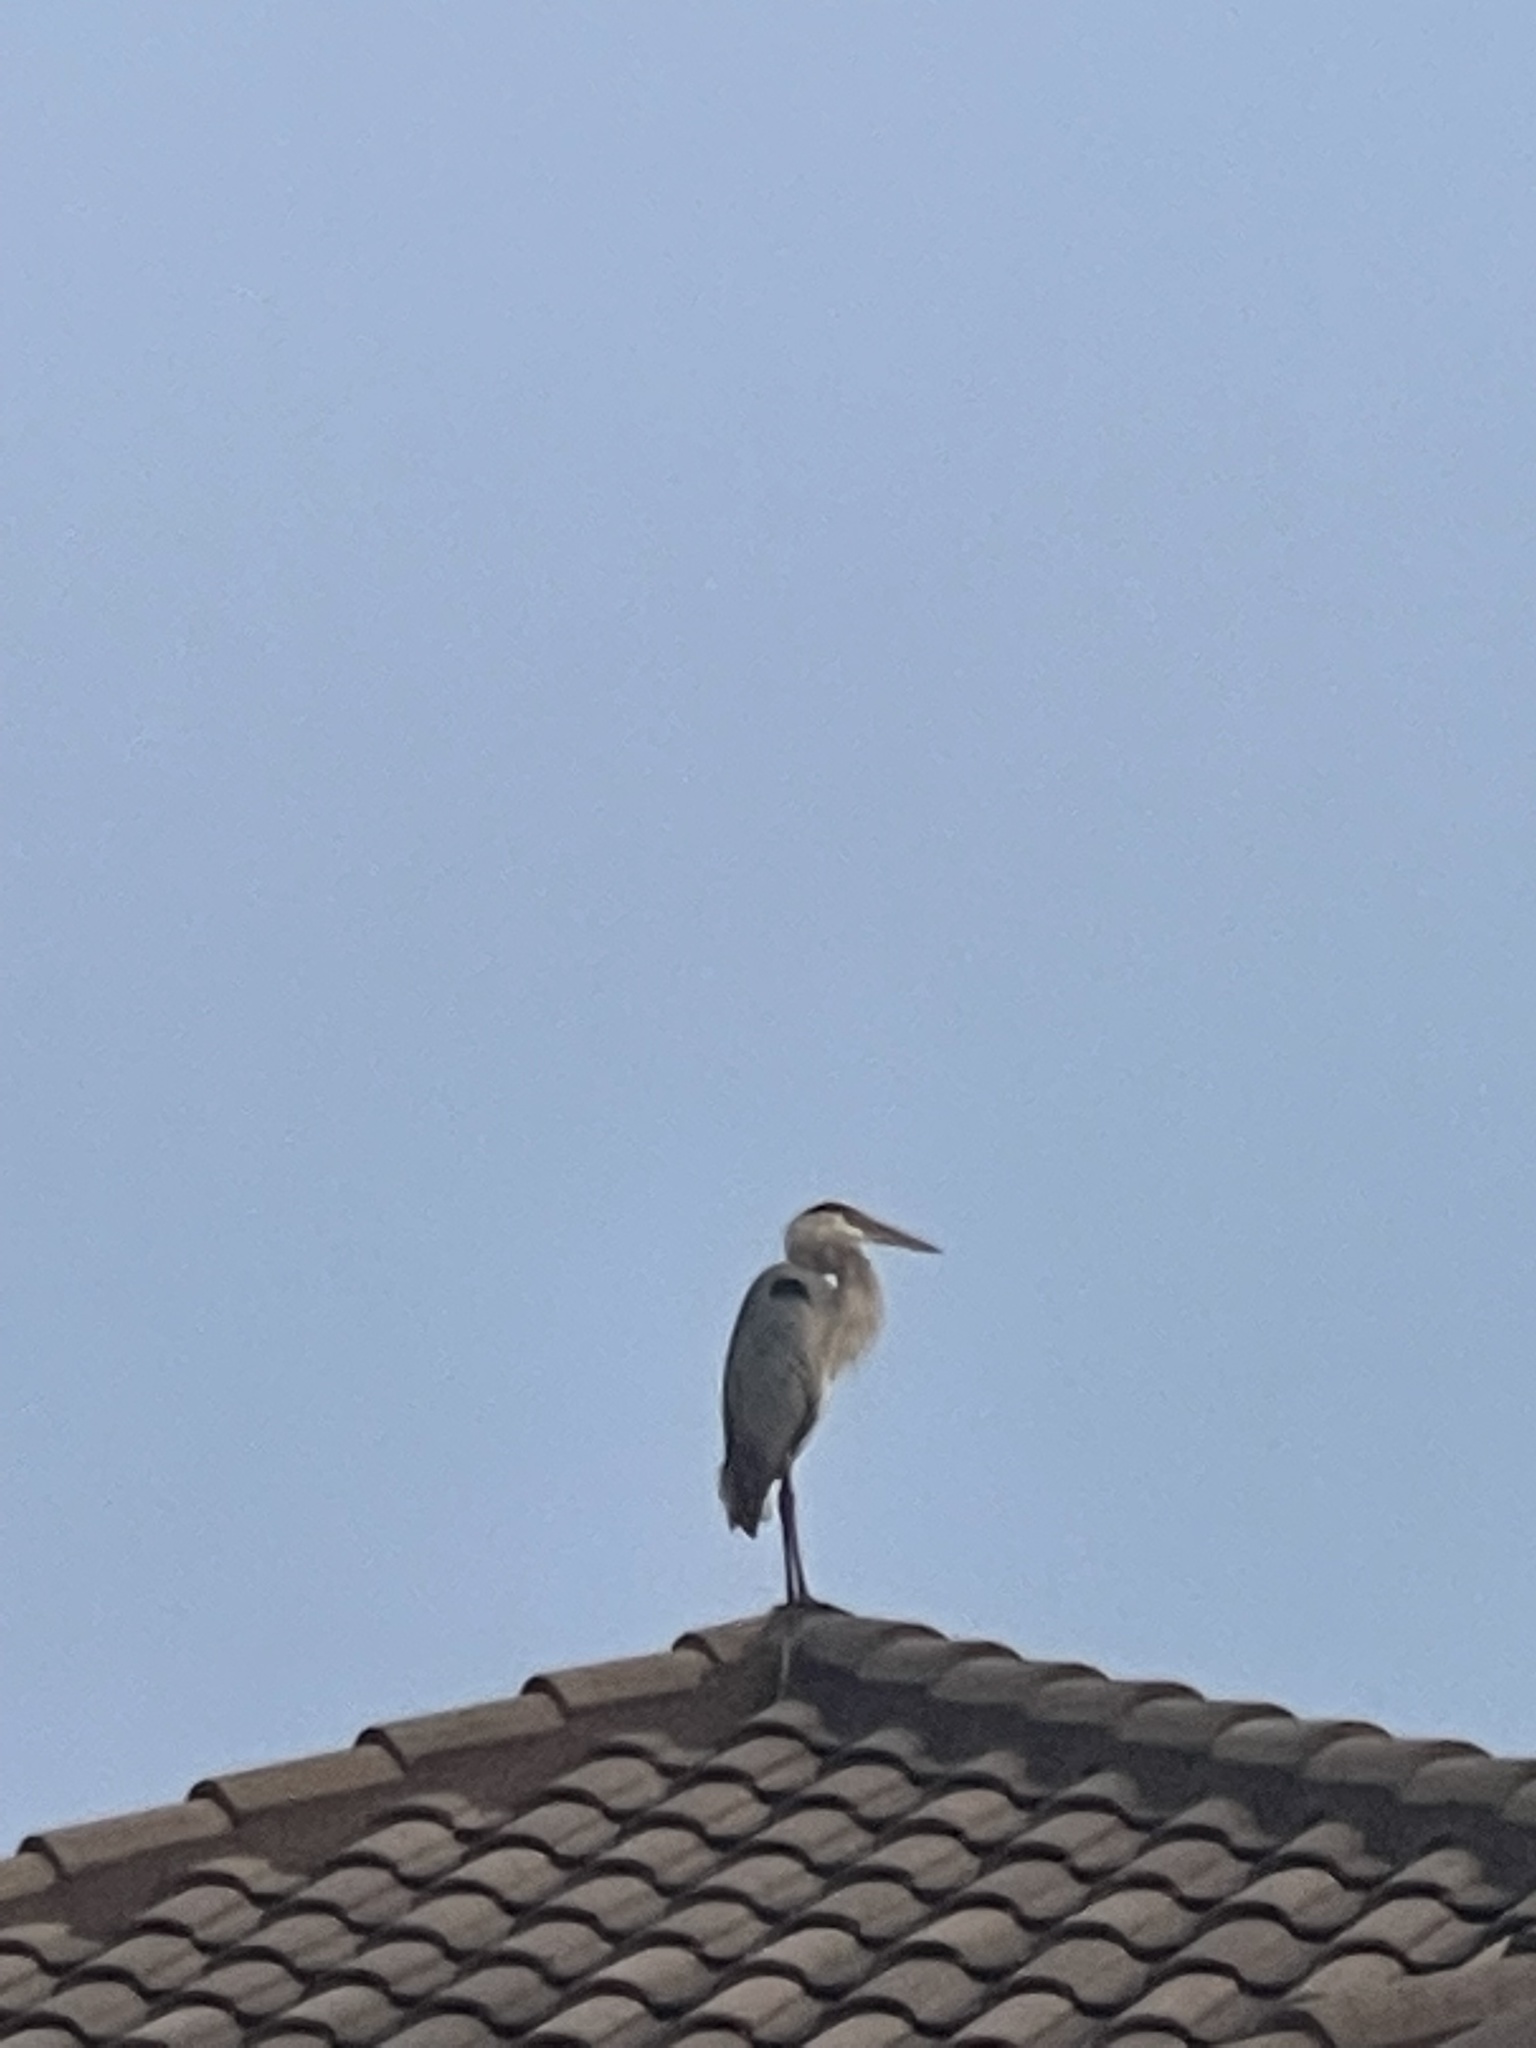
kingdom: Animalia
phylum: Chordata
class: Aves
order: Pelecaniformes
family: Ardeidae
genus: Ardea
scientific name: Ardea herodias
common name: Great blue heron
